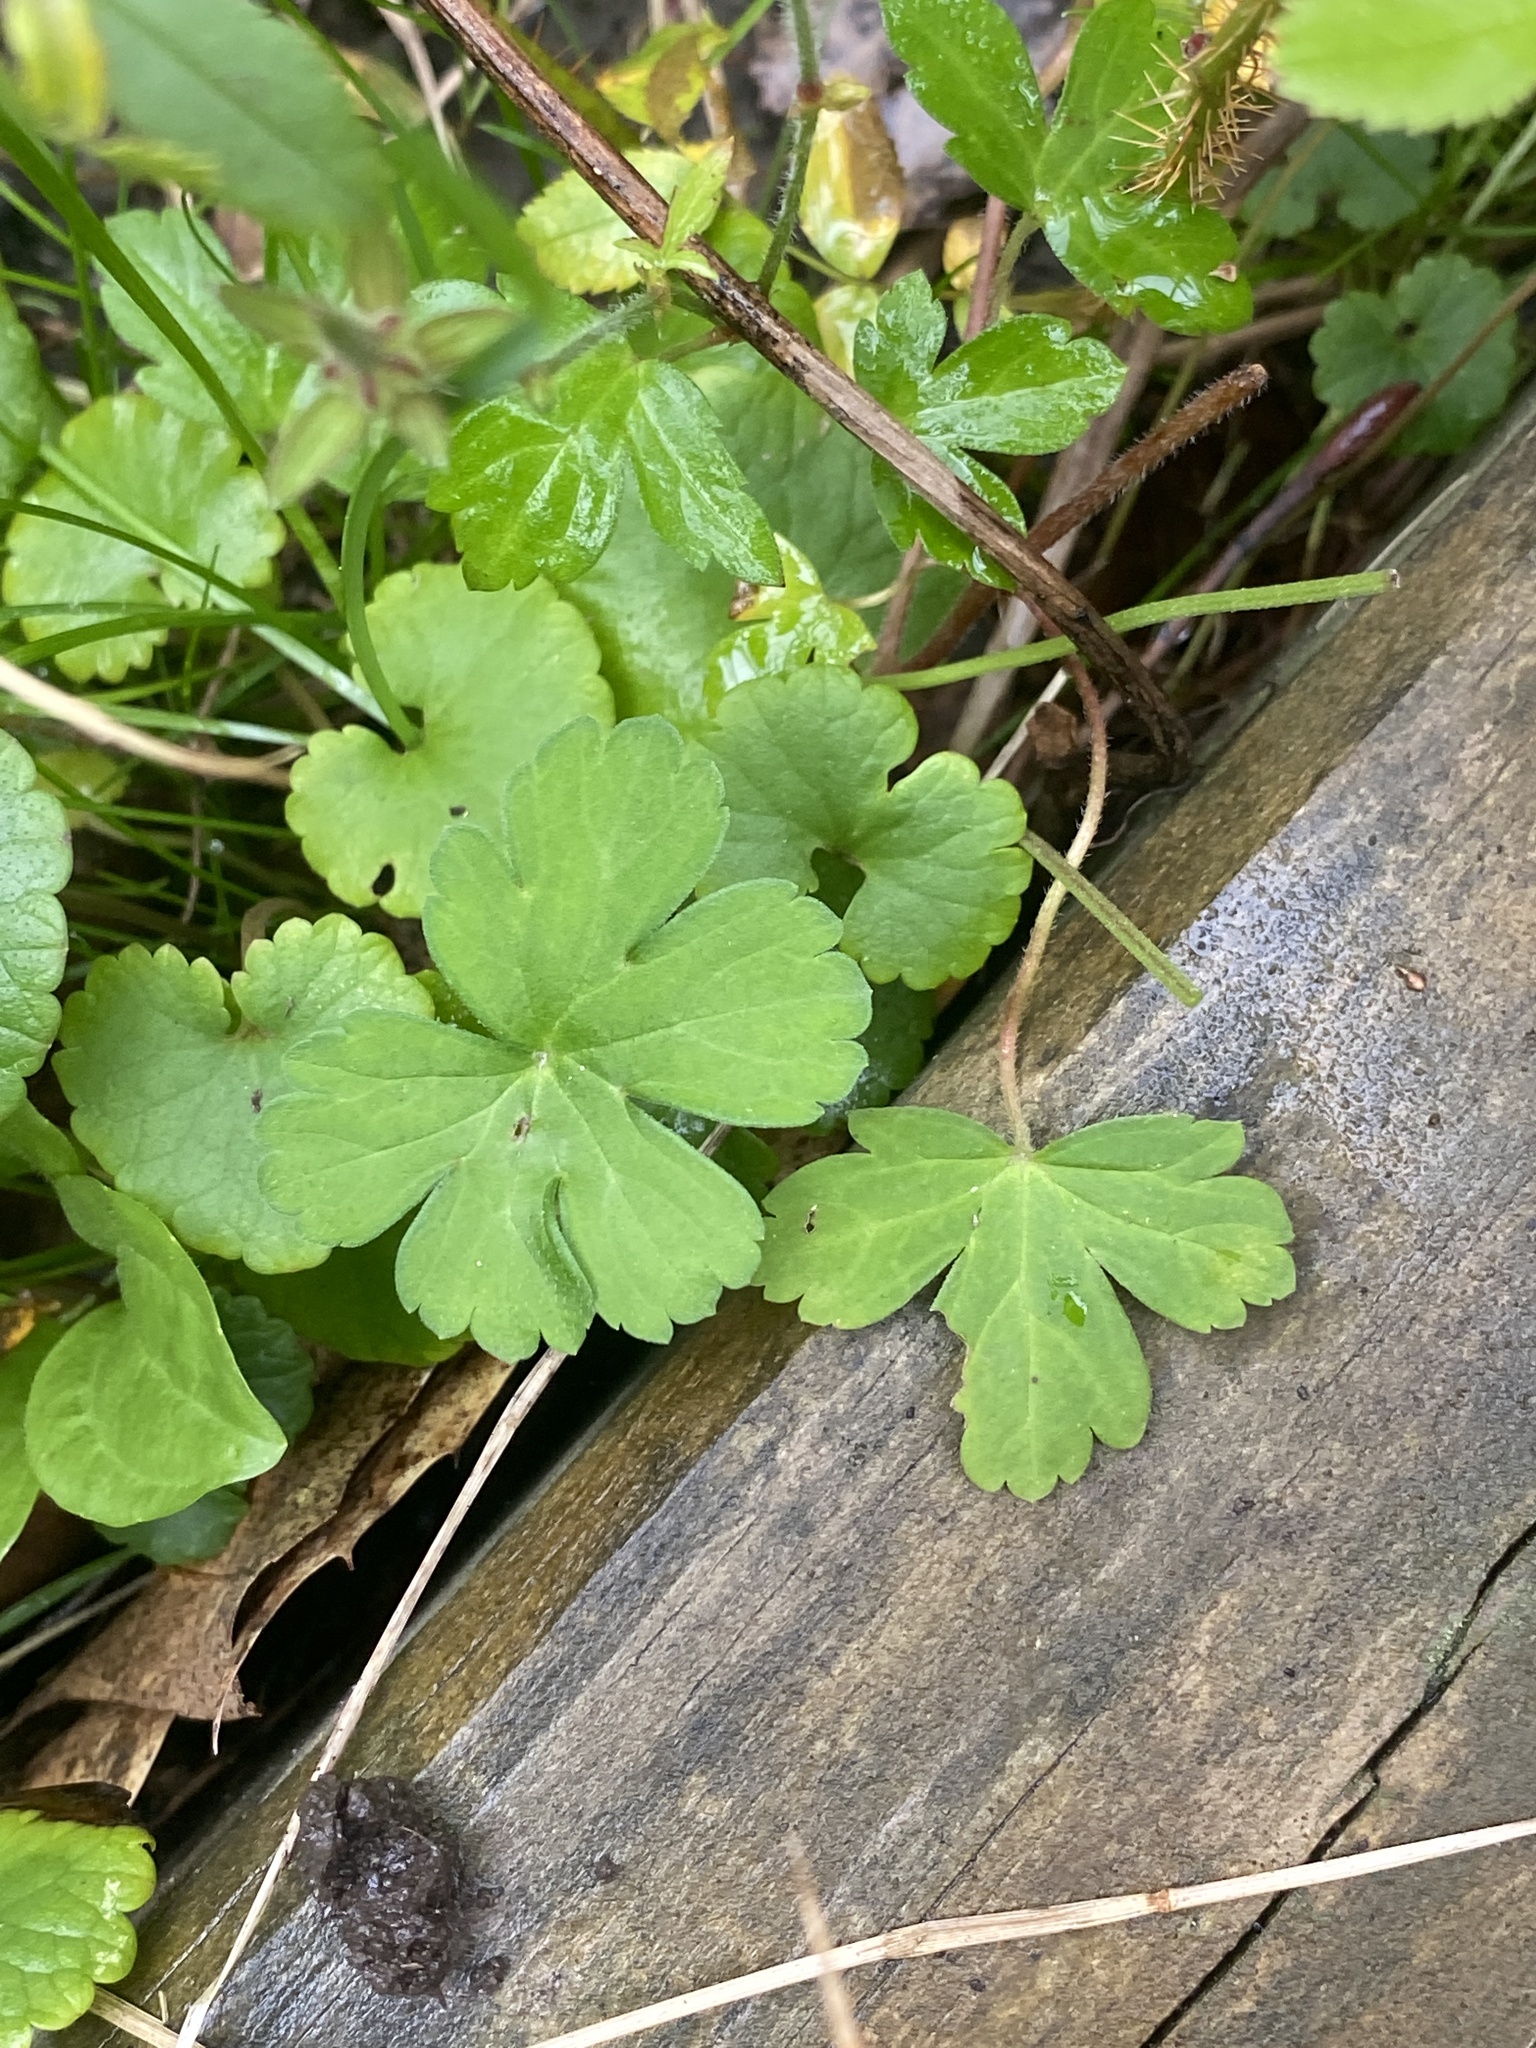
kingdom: Plantae
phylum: Tracheophyta
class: Magnoliopsida
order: Geraniales
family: Geraniaceae
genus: Geranium
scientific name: Geranium thunbergii
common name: Dewdrop crane's-bill
